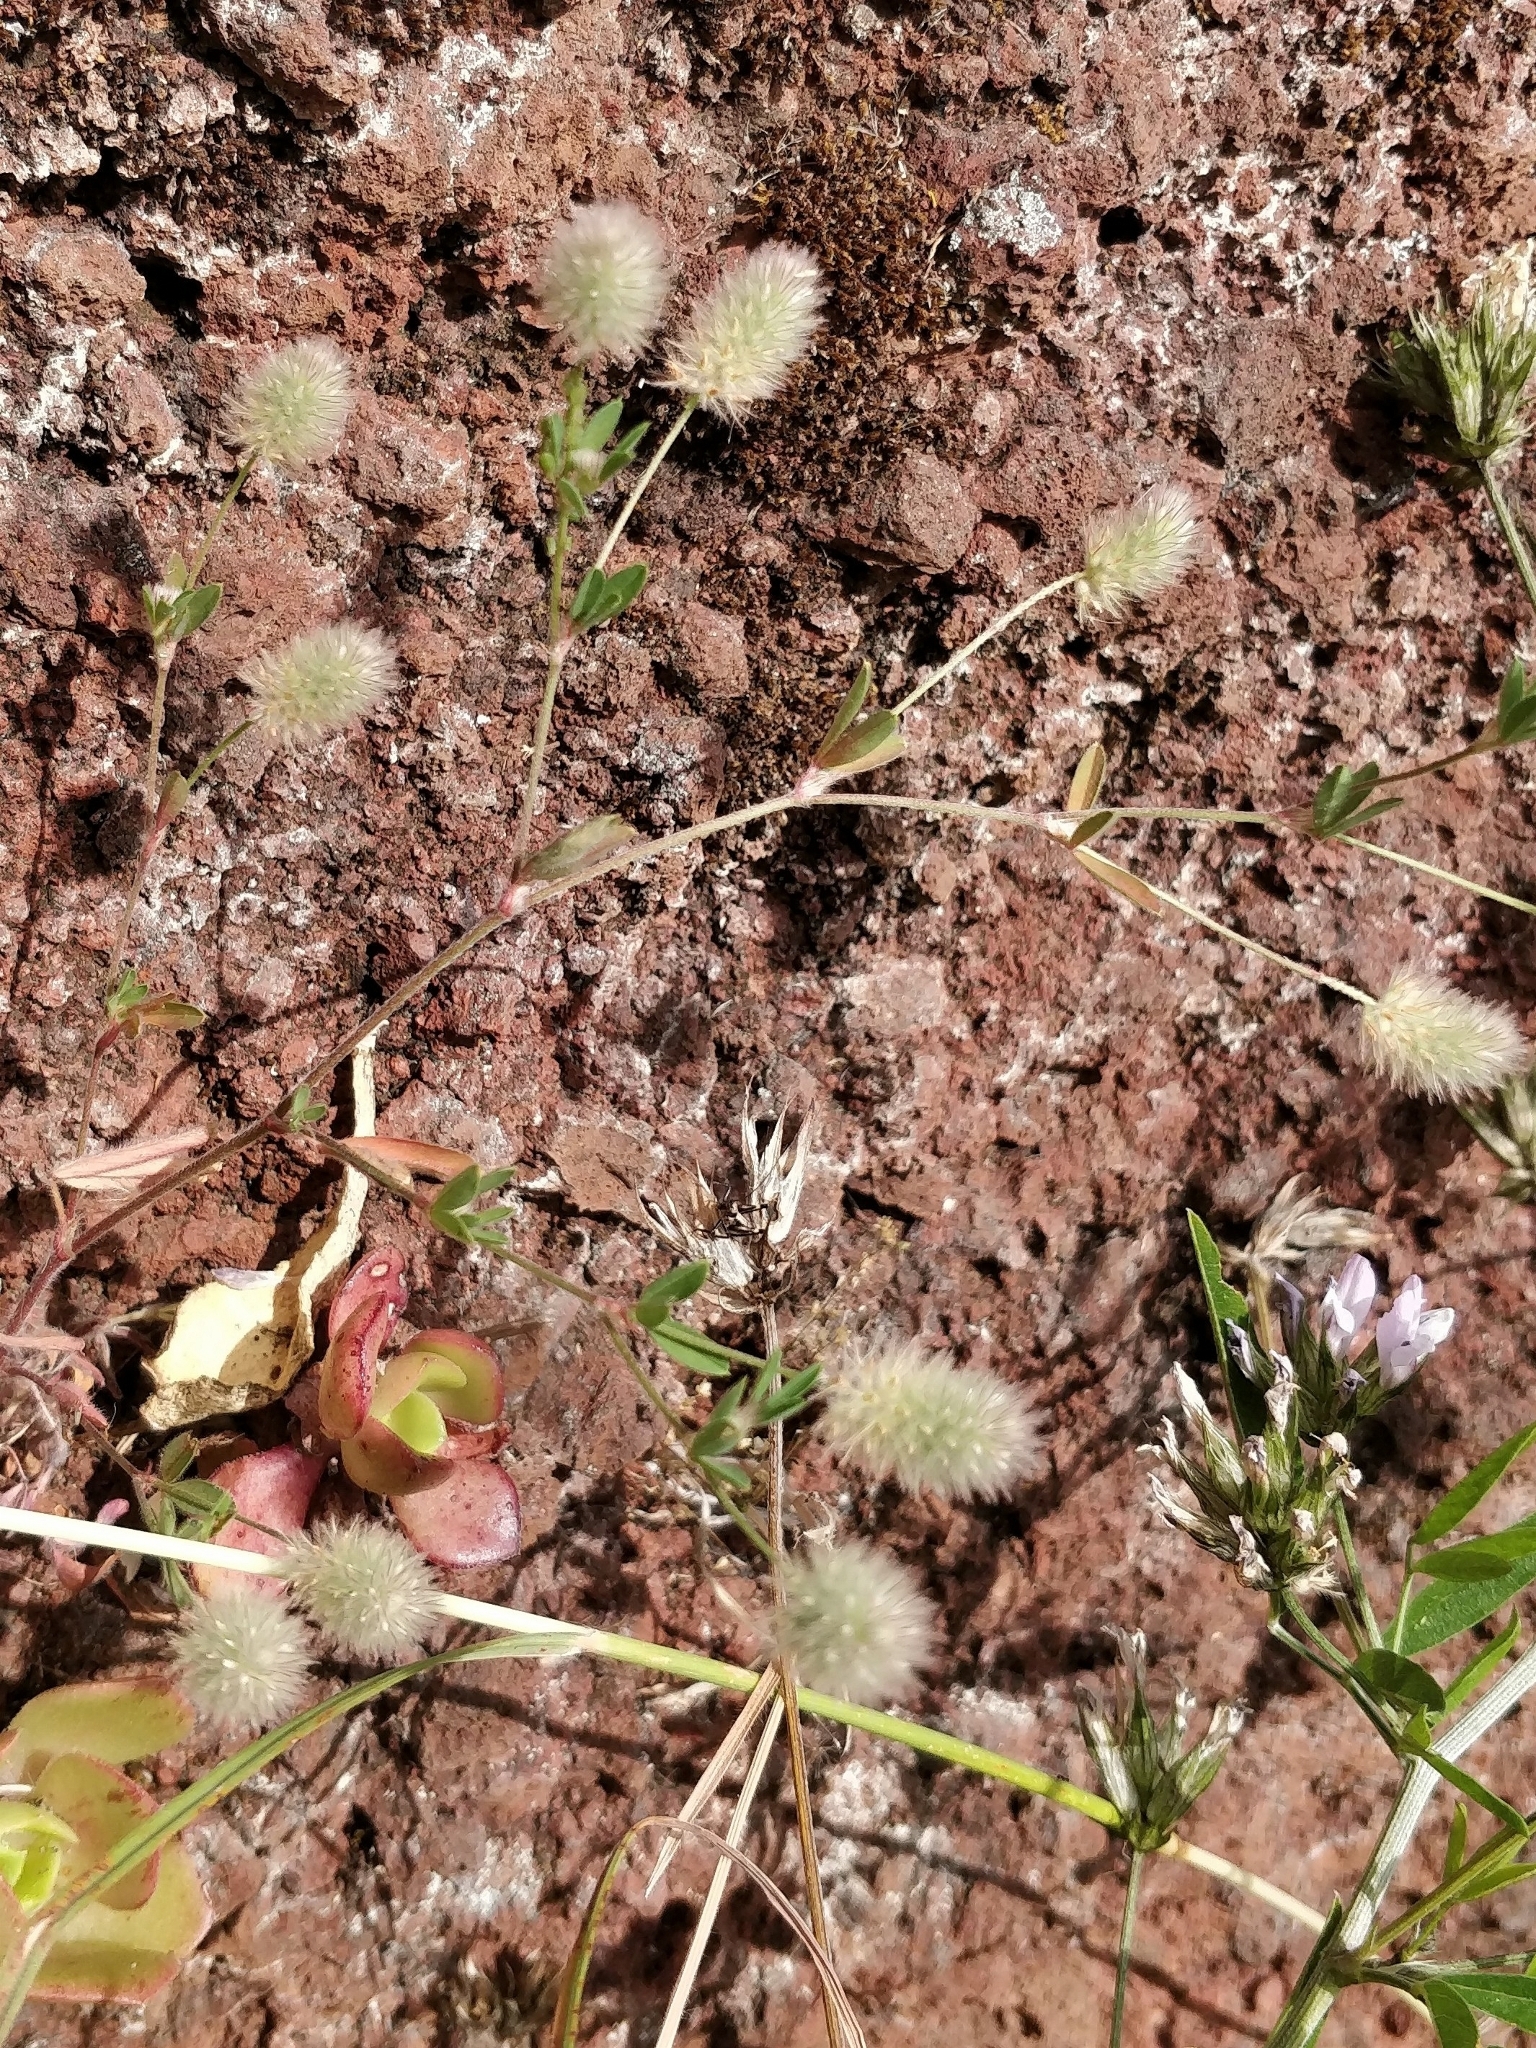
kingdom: Plantae
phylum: Tracheophyta
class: Magnoliopsida
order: Fabales
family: Fabaceae
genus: Trifolium
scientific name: Trifolium arvense
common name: Hare's-foot clover
